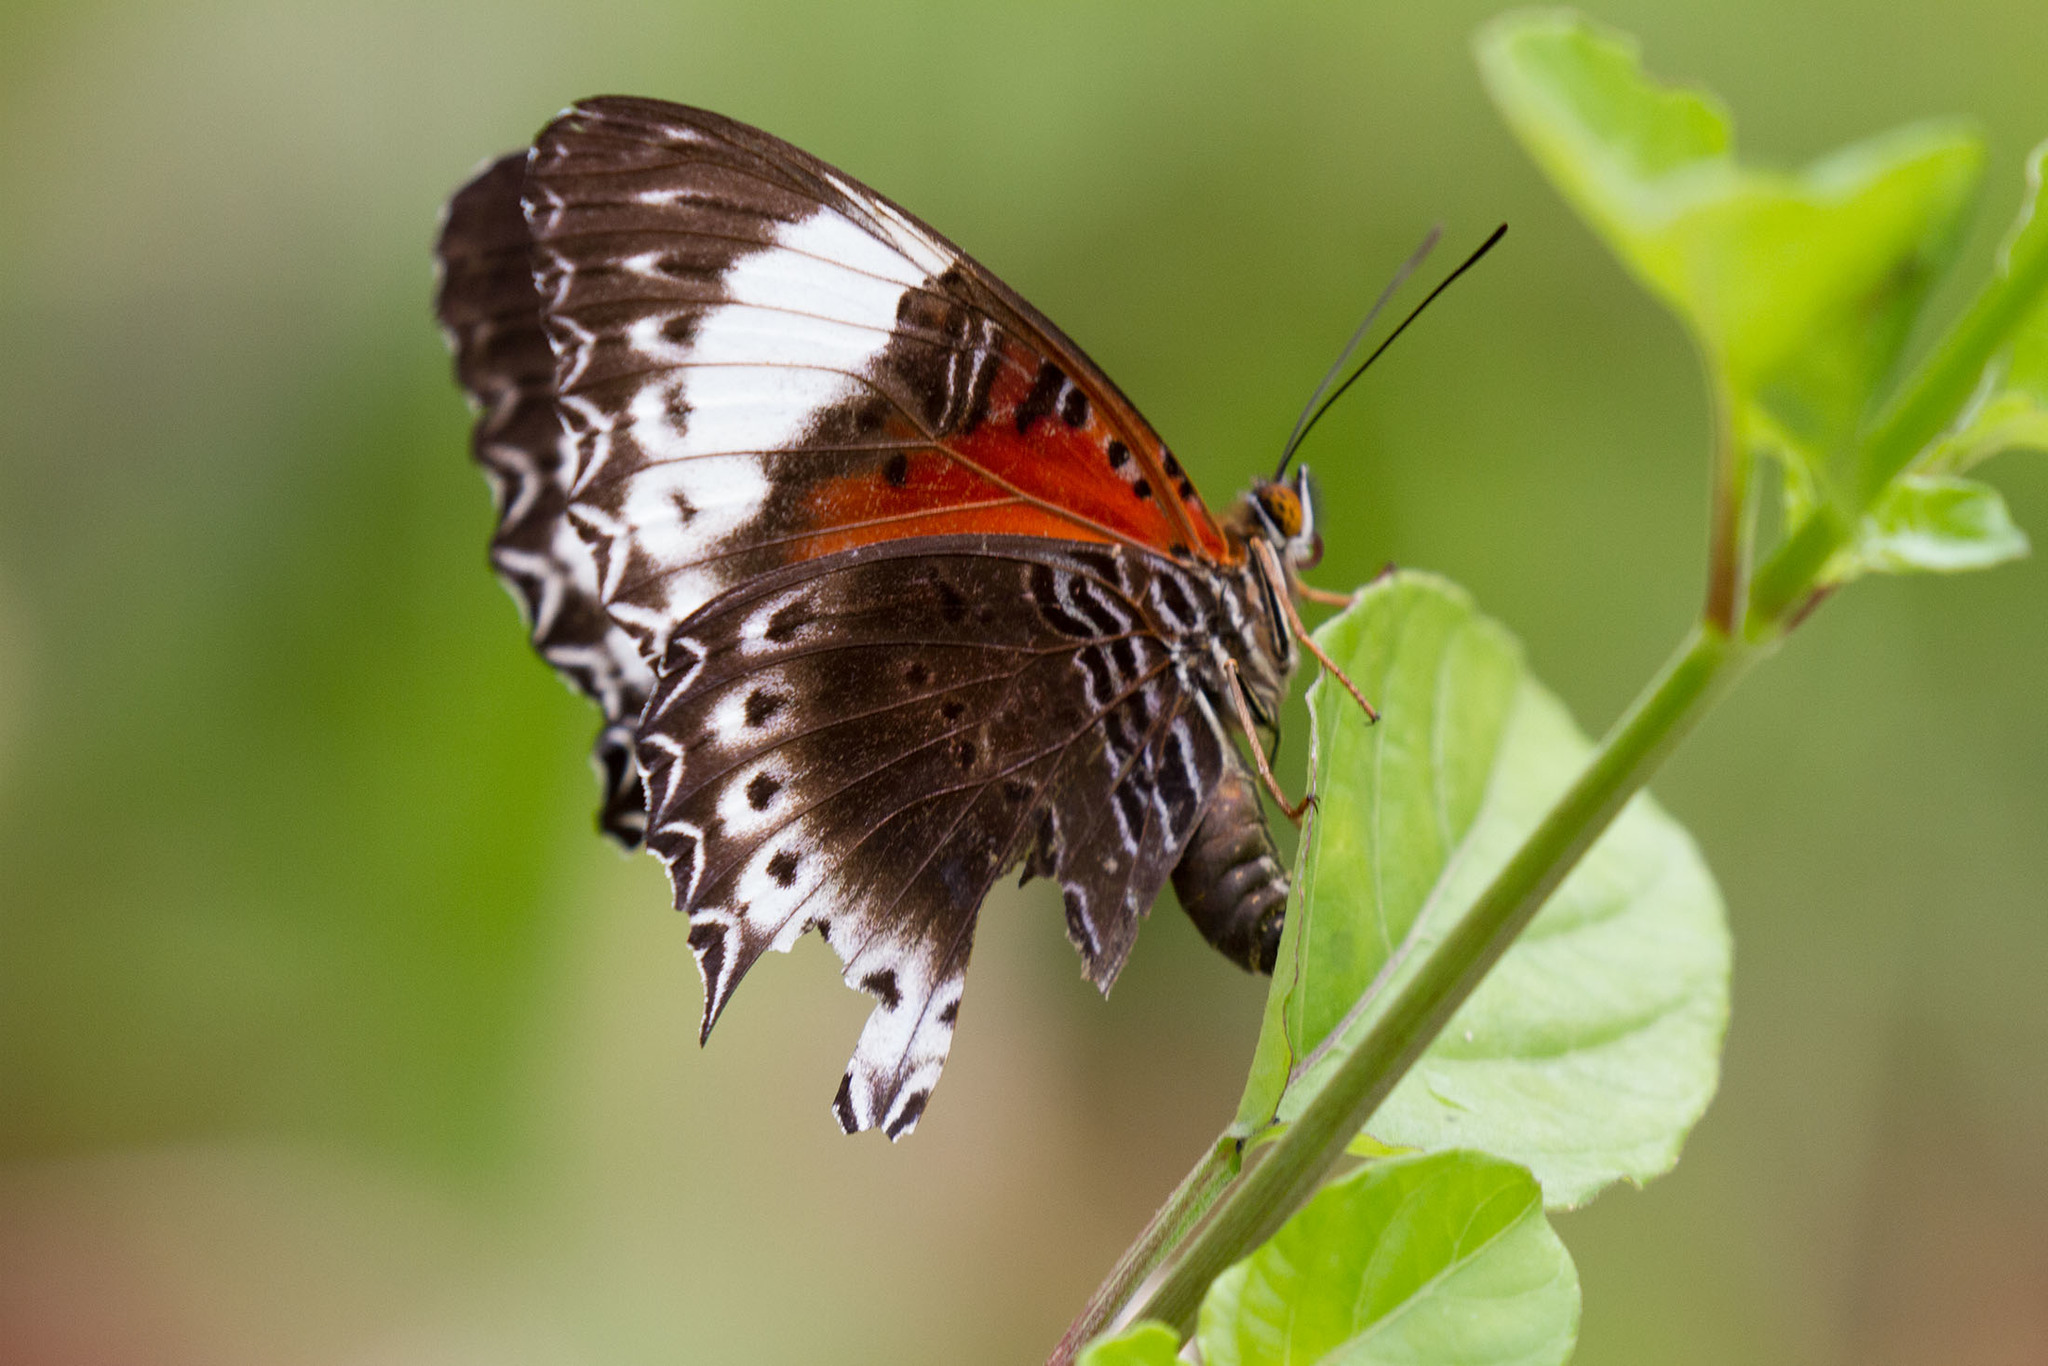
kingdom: Animalia
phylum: Arthropoda
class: Insecta
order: Lepidoptera
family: Nymphalidae
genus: Cethosia
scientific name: Cethosia cydippe
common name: Eastern red lacewing butterfly
